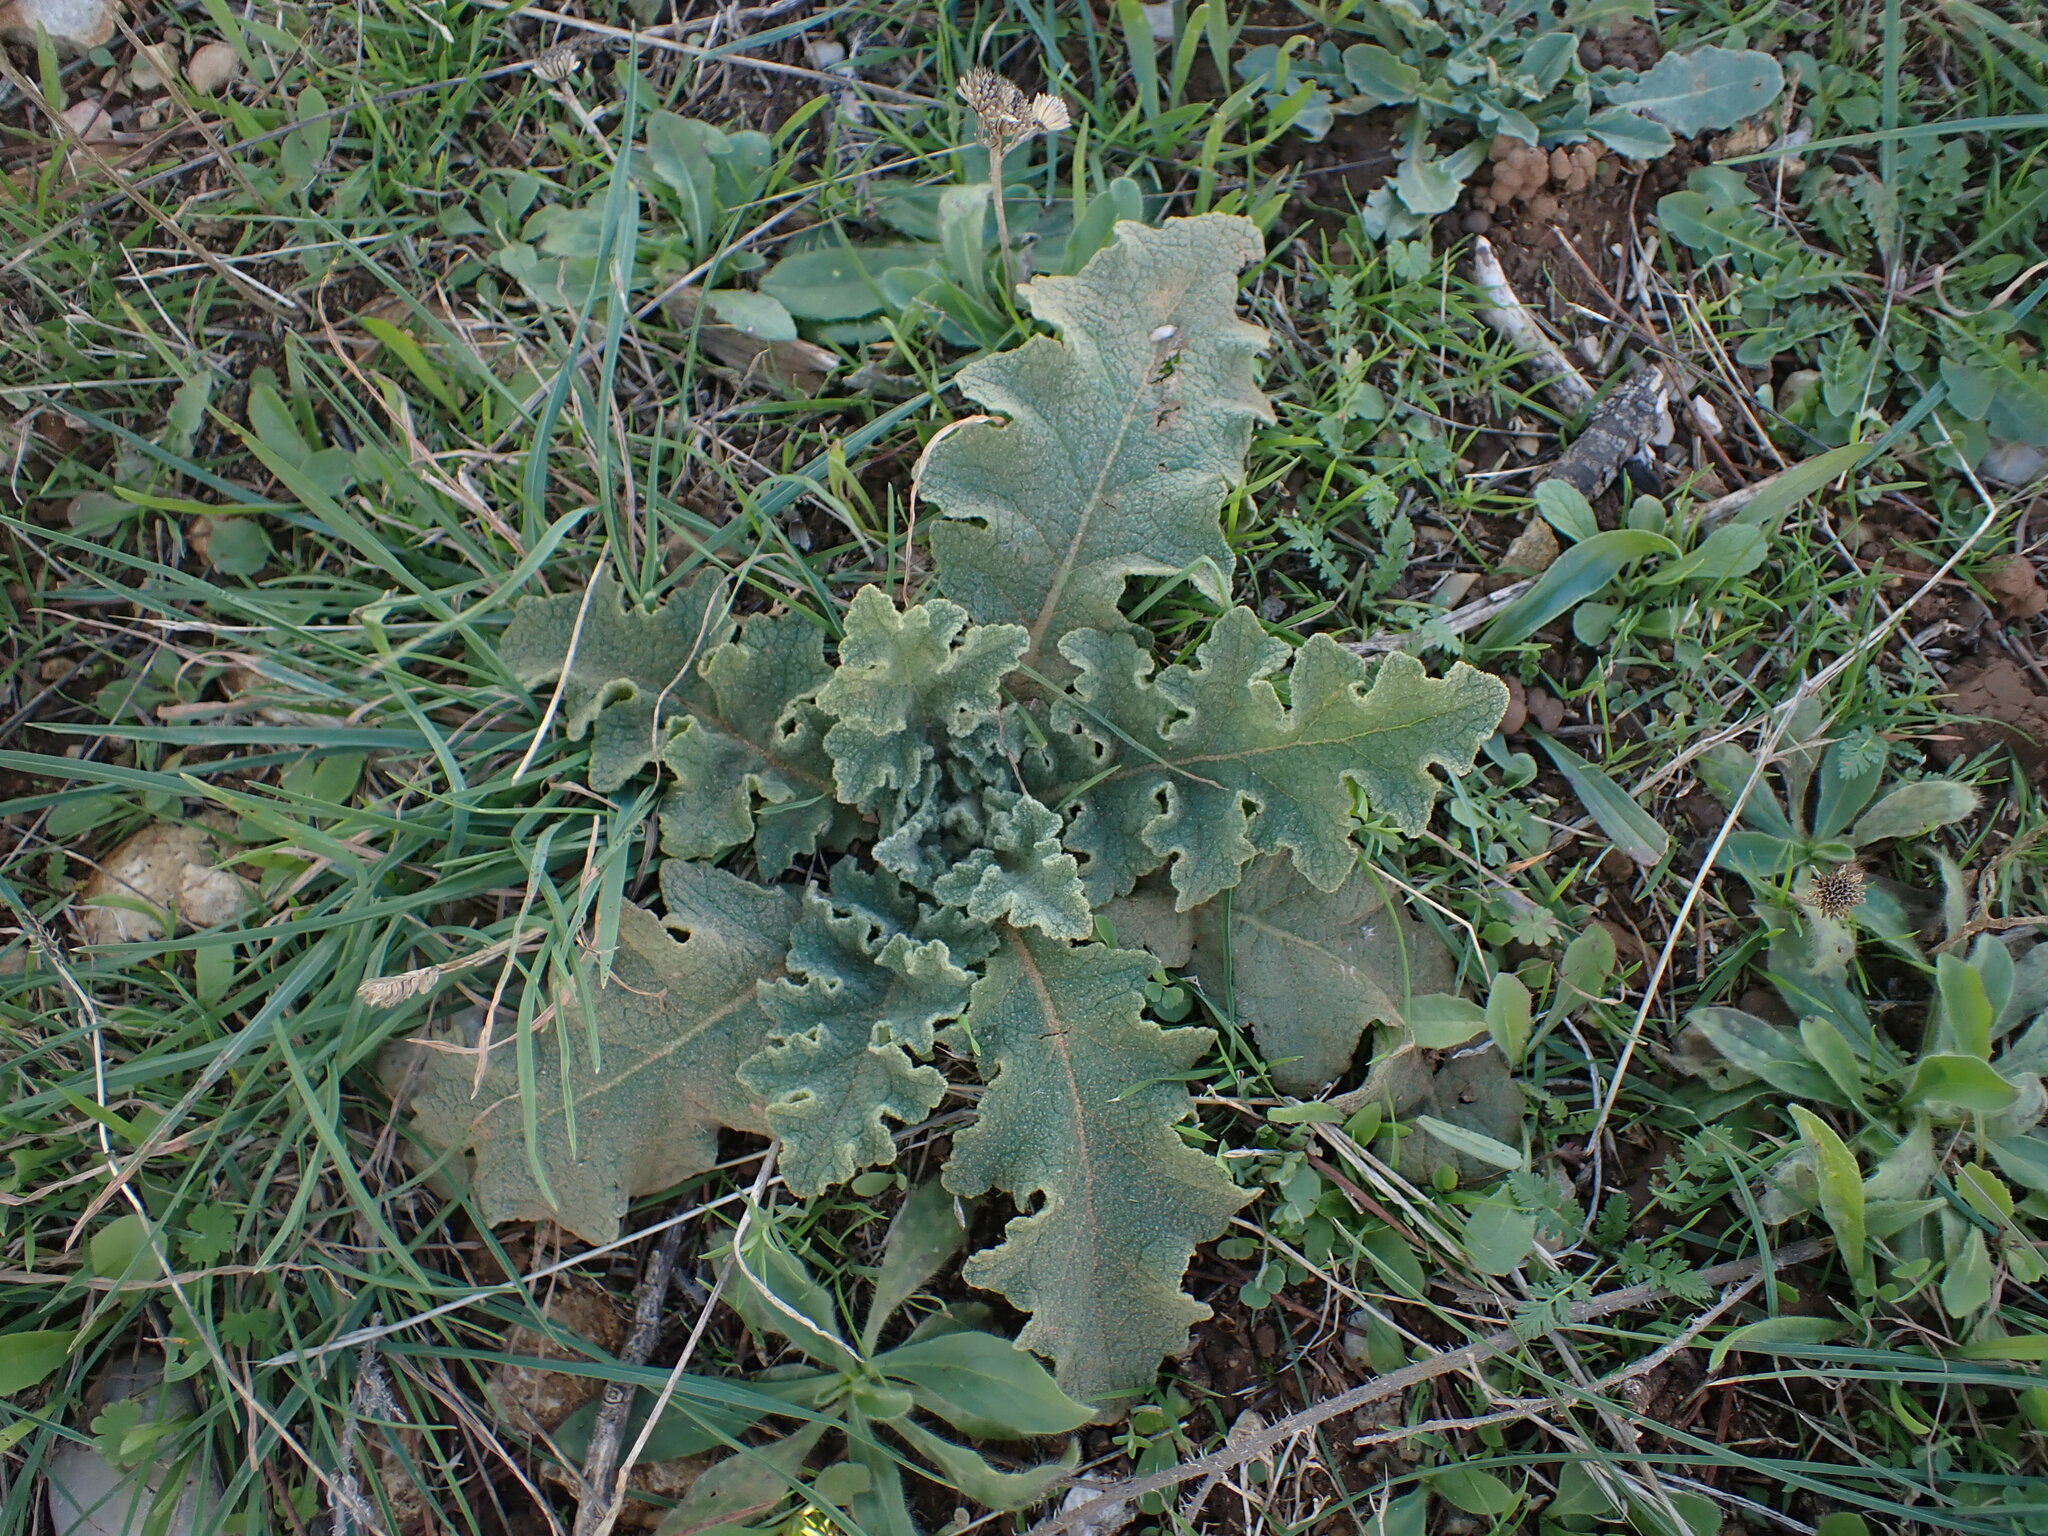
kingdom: Plantae
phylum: Tracheophyta
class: Magnoliopsida
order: Lamiales
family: Scrophulariaceae
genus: Verbascum
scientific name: Verbascum sinuatum
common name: Wavyleaf mullein
